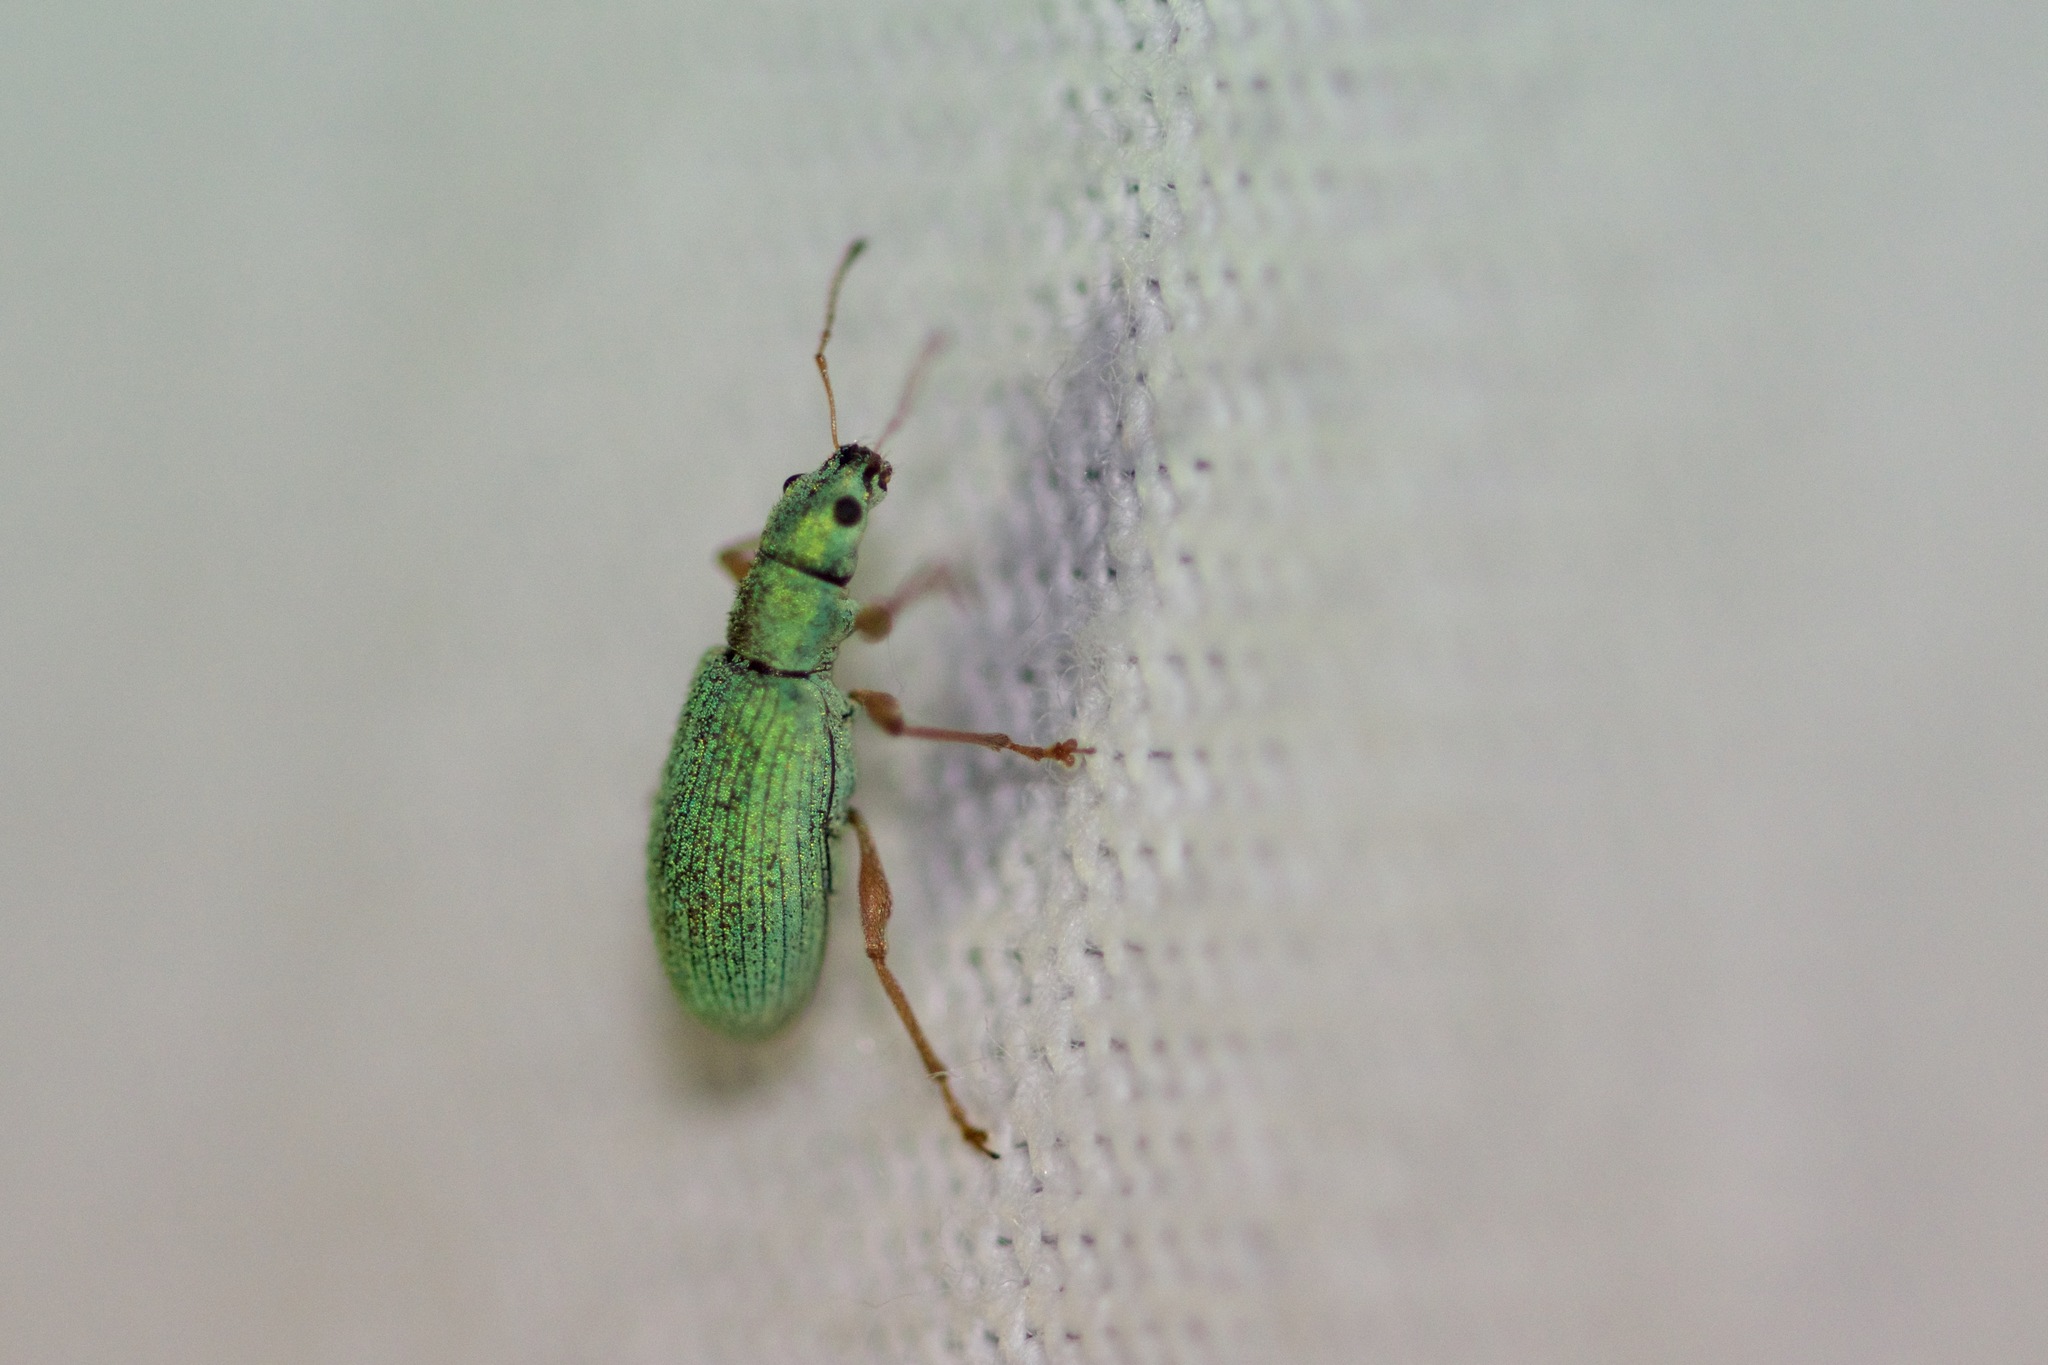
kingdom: Animalia
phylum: Arthropoda
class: Insecta
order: Coleoptera
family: Curculionidae
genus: Polydrusus
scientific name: Polydrusus impressifrons
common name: Weevil
